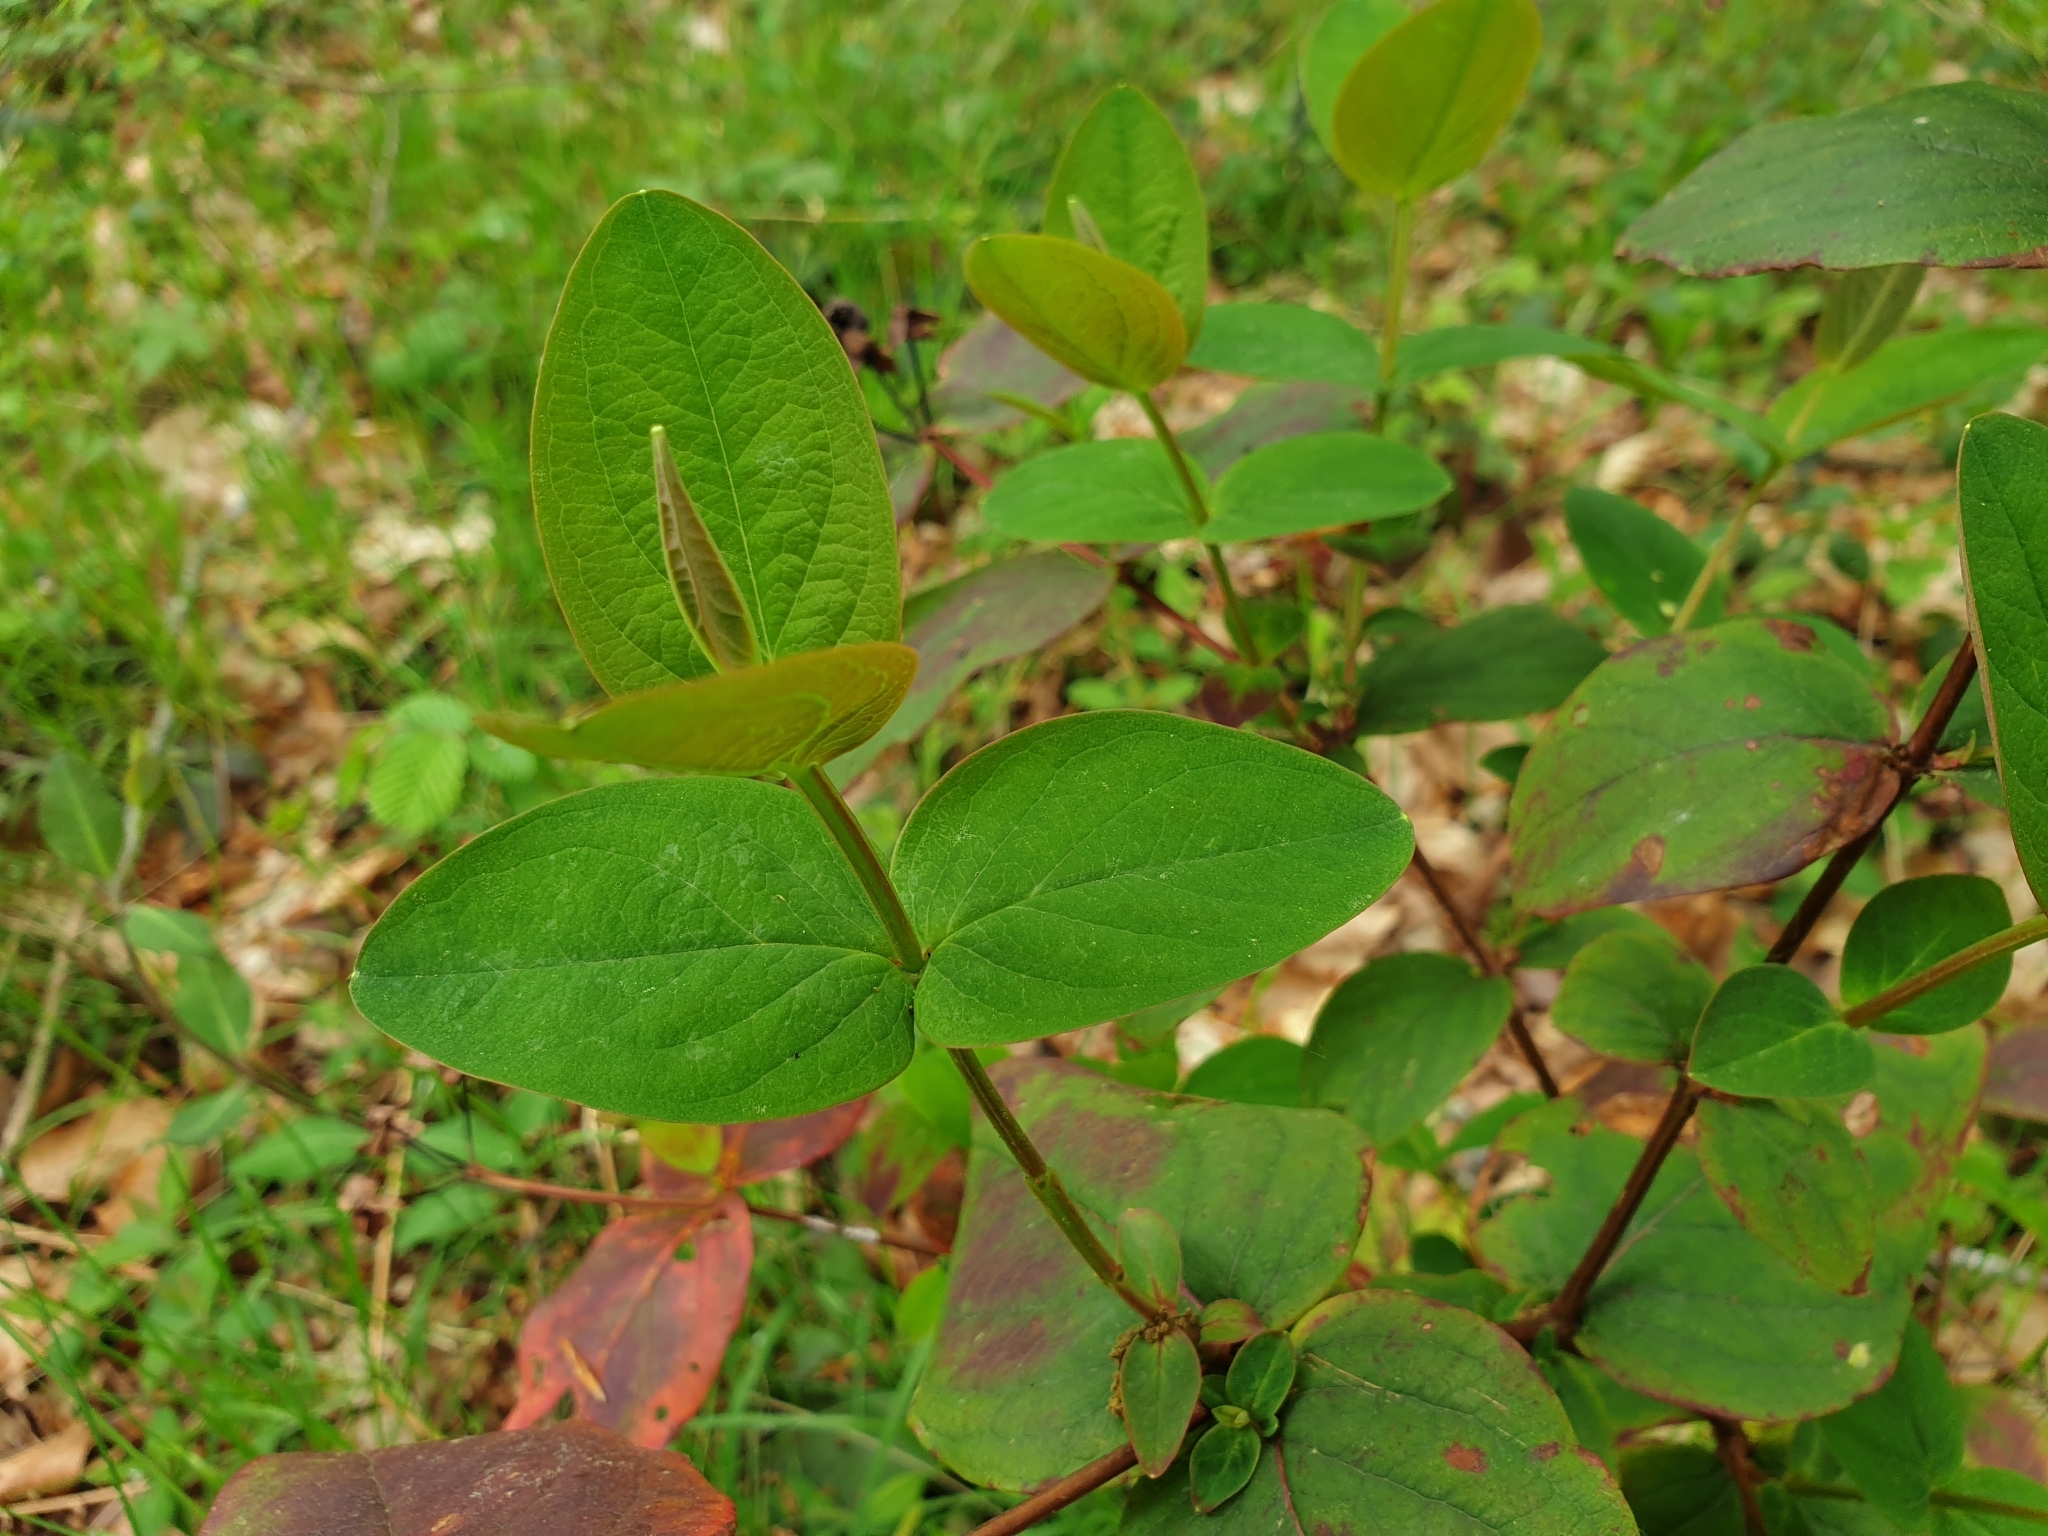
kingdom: Plantae
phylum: Tracheophyta
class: Magnoliopsida
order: Malpighiales
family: Hypericaceae
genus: Hypericum
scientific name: Hypericum androsaemum
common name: Sweet-amber
